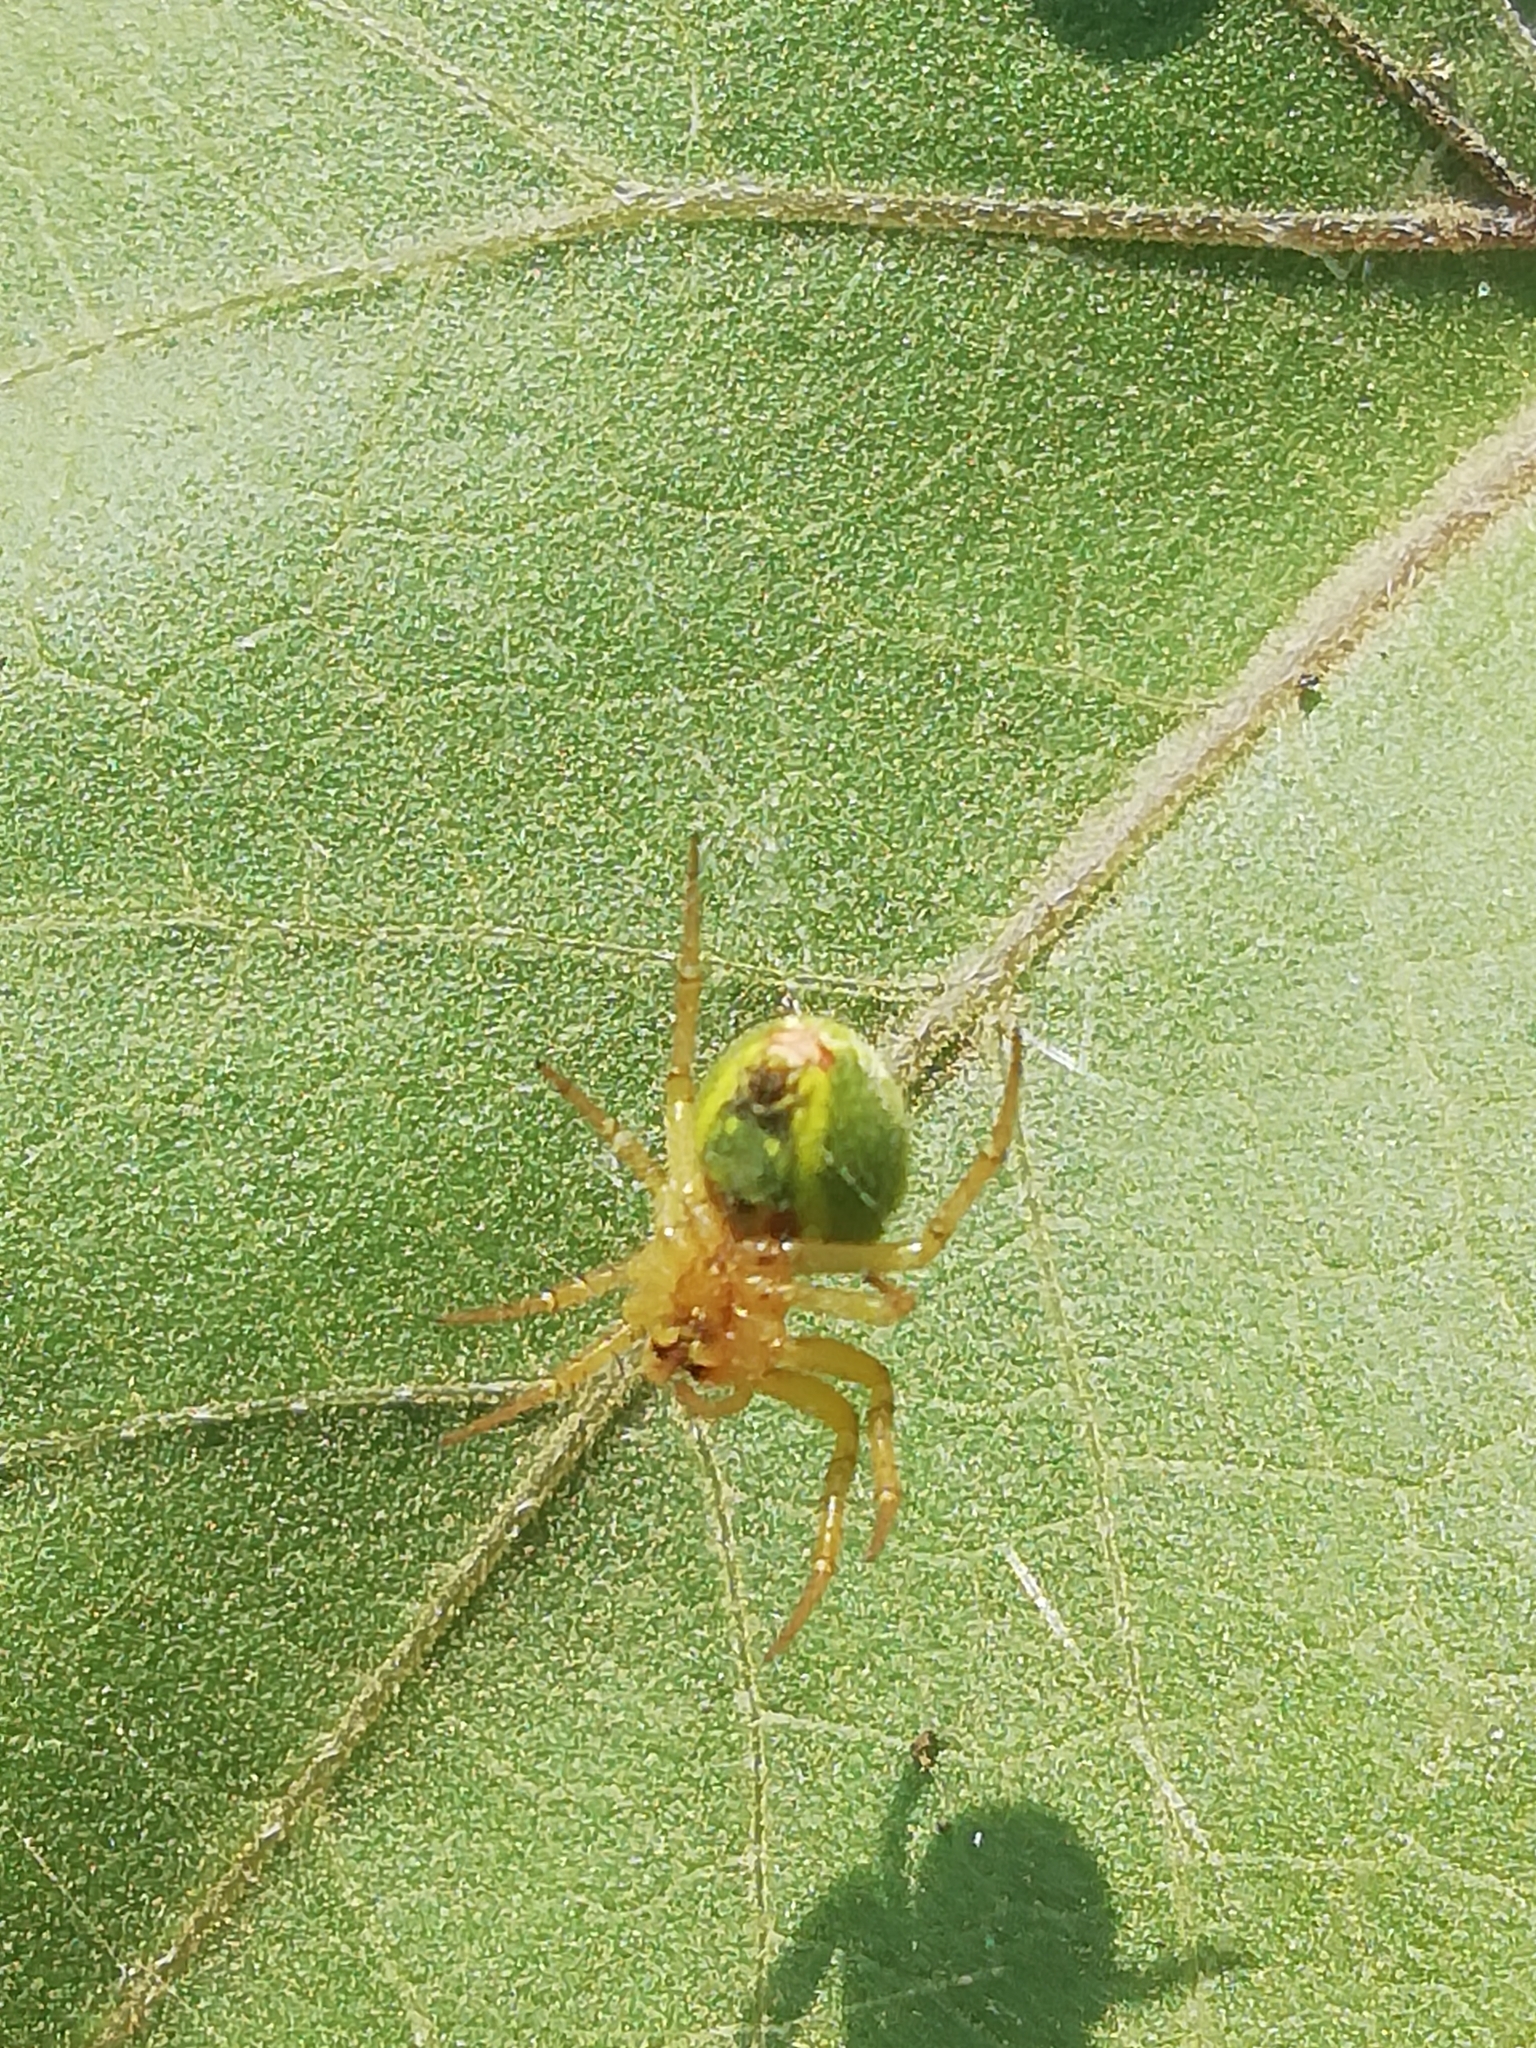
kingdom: Animalia
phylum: Arthropoda
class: Arachnida
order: Araneae
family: Araneidae
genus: Araniella
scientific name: Araniella
